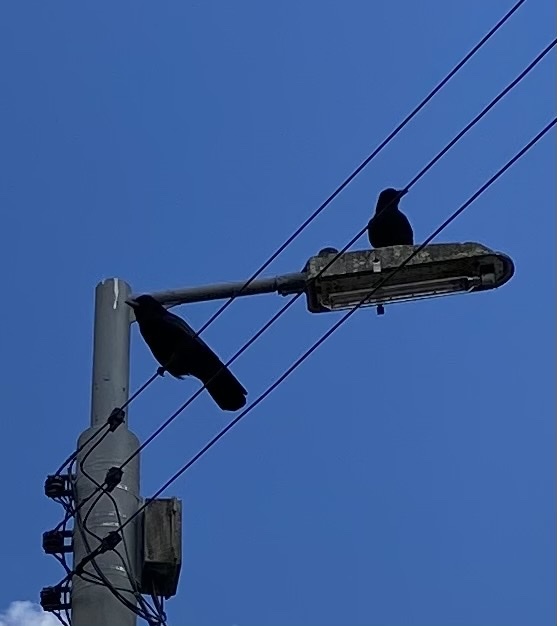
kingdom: Animalia
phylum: Chordata
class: Aves
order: Passeriformes
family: Corvidae
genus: Corvus
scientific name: Corvus corone
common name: Carrion crow
